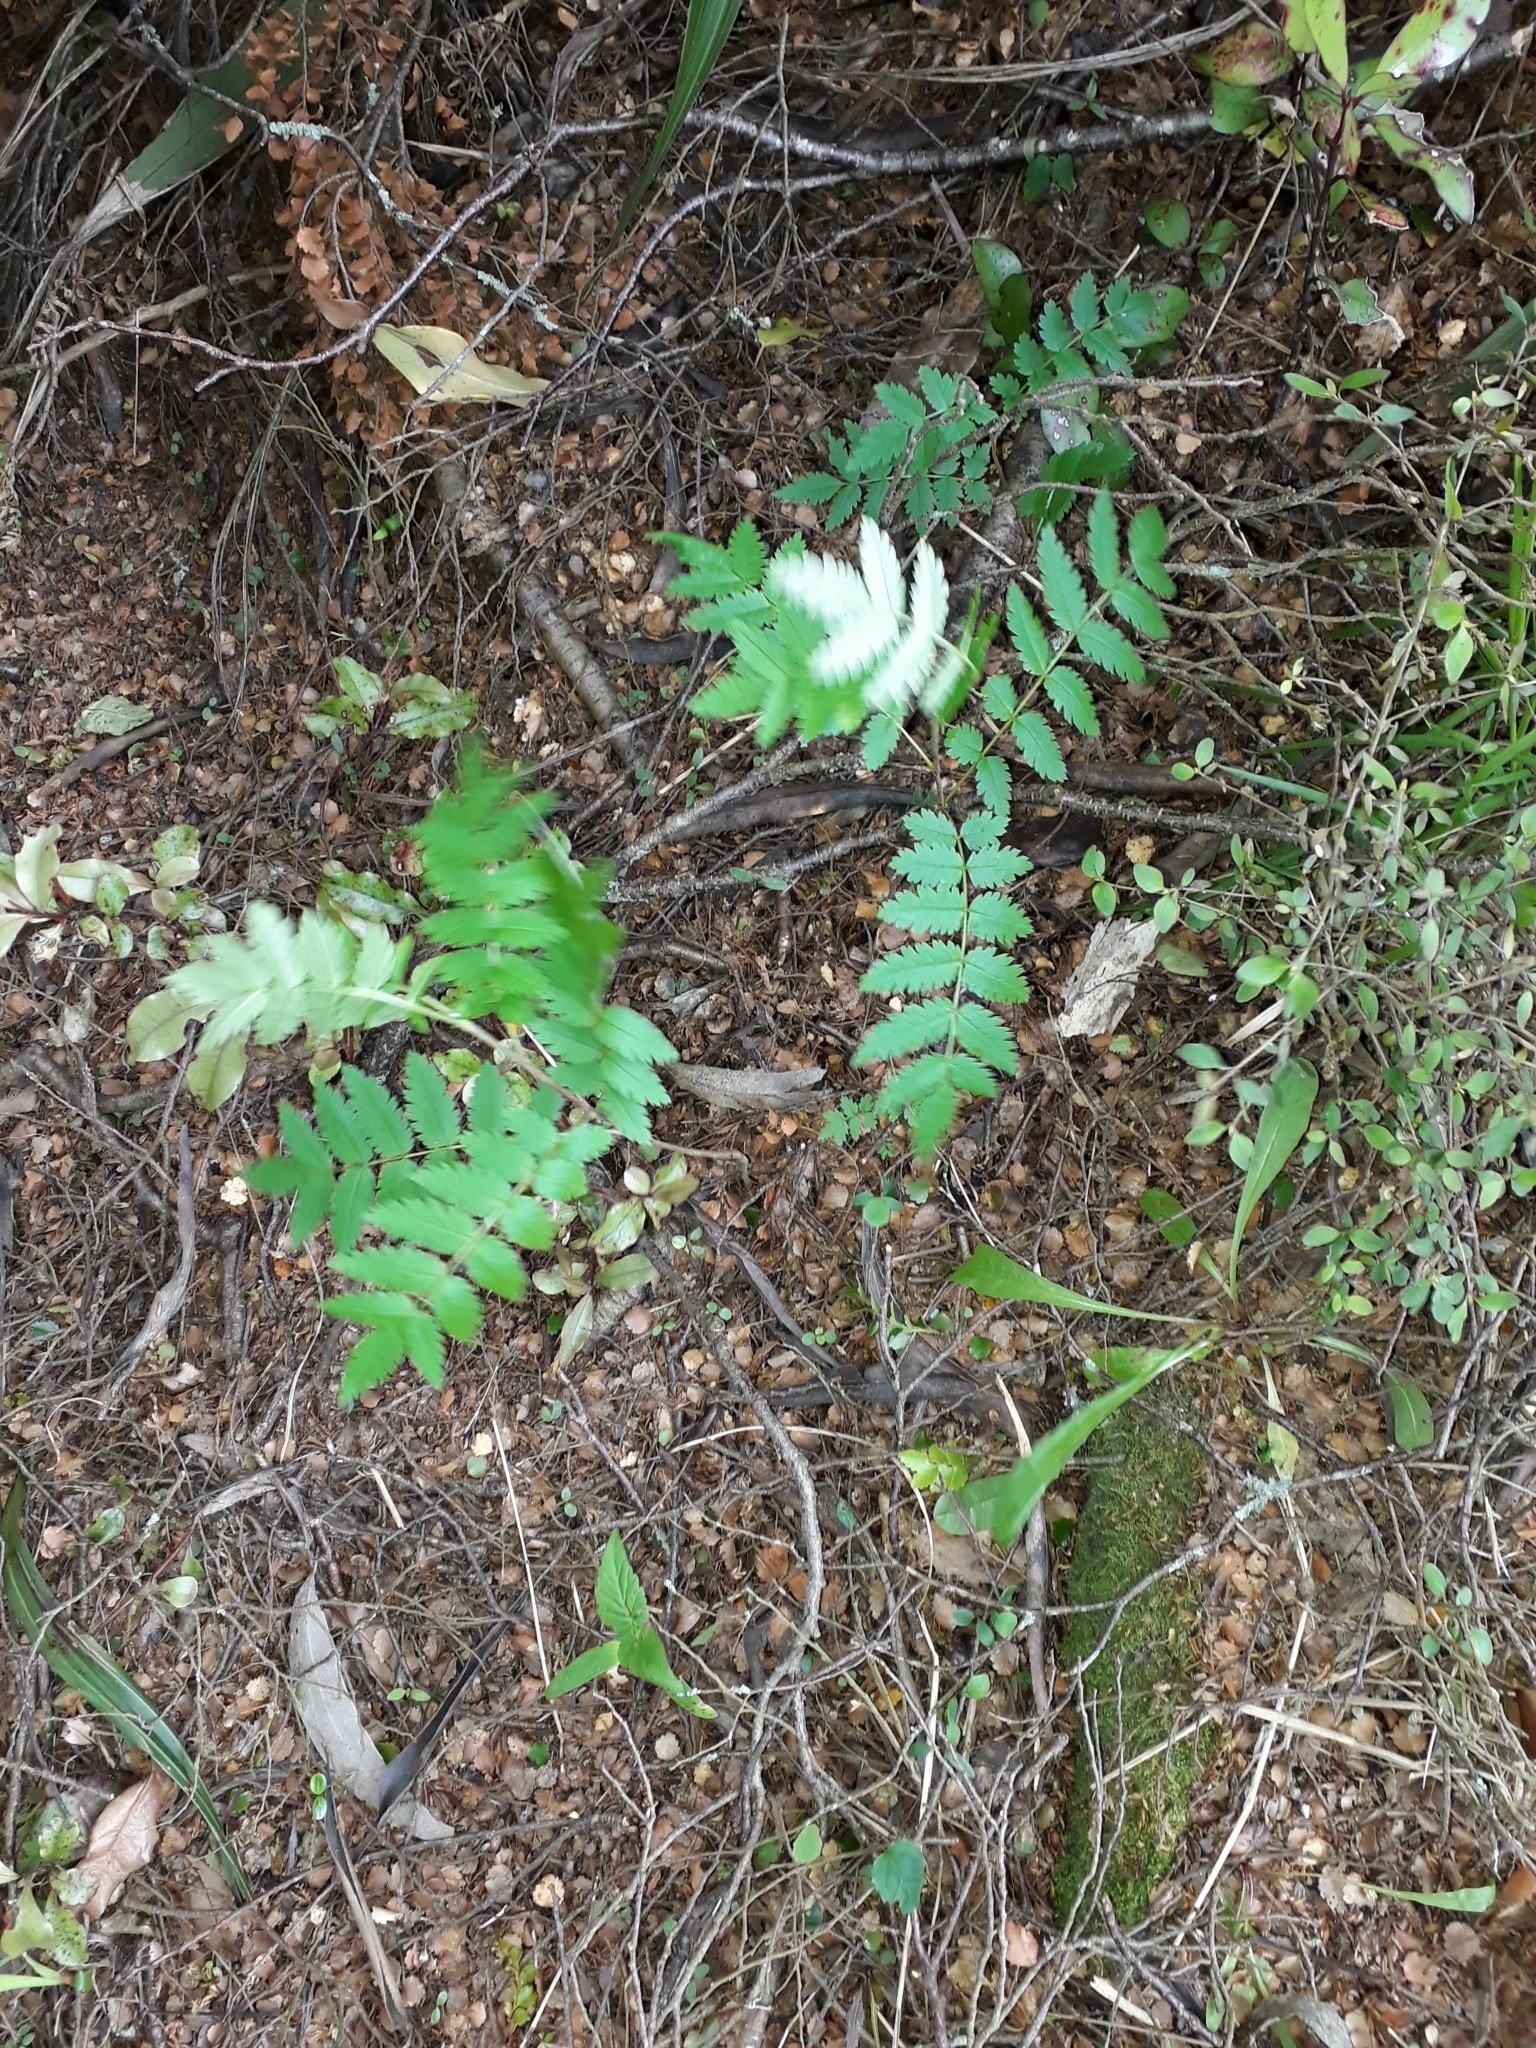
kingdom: Plantae
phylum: Tracheophyta
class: Magnoliopsida
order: Rosales
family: Rosaceae
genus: Sorbus
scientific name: Sorbus aucuparia
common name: Rowan
